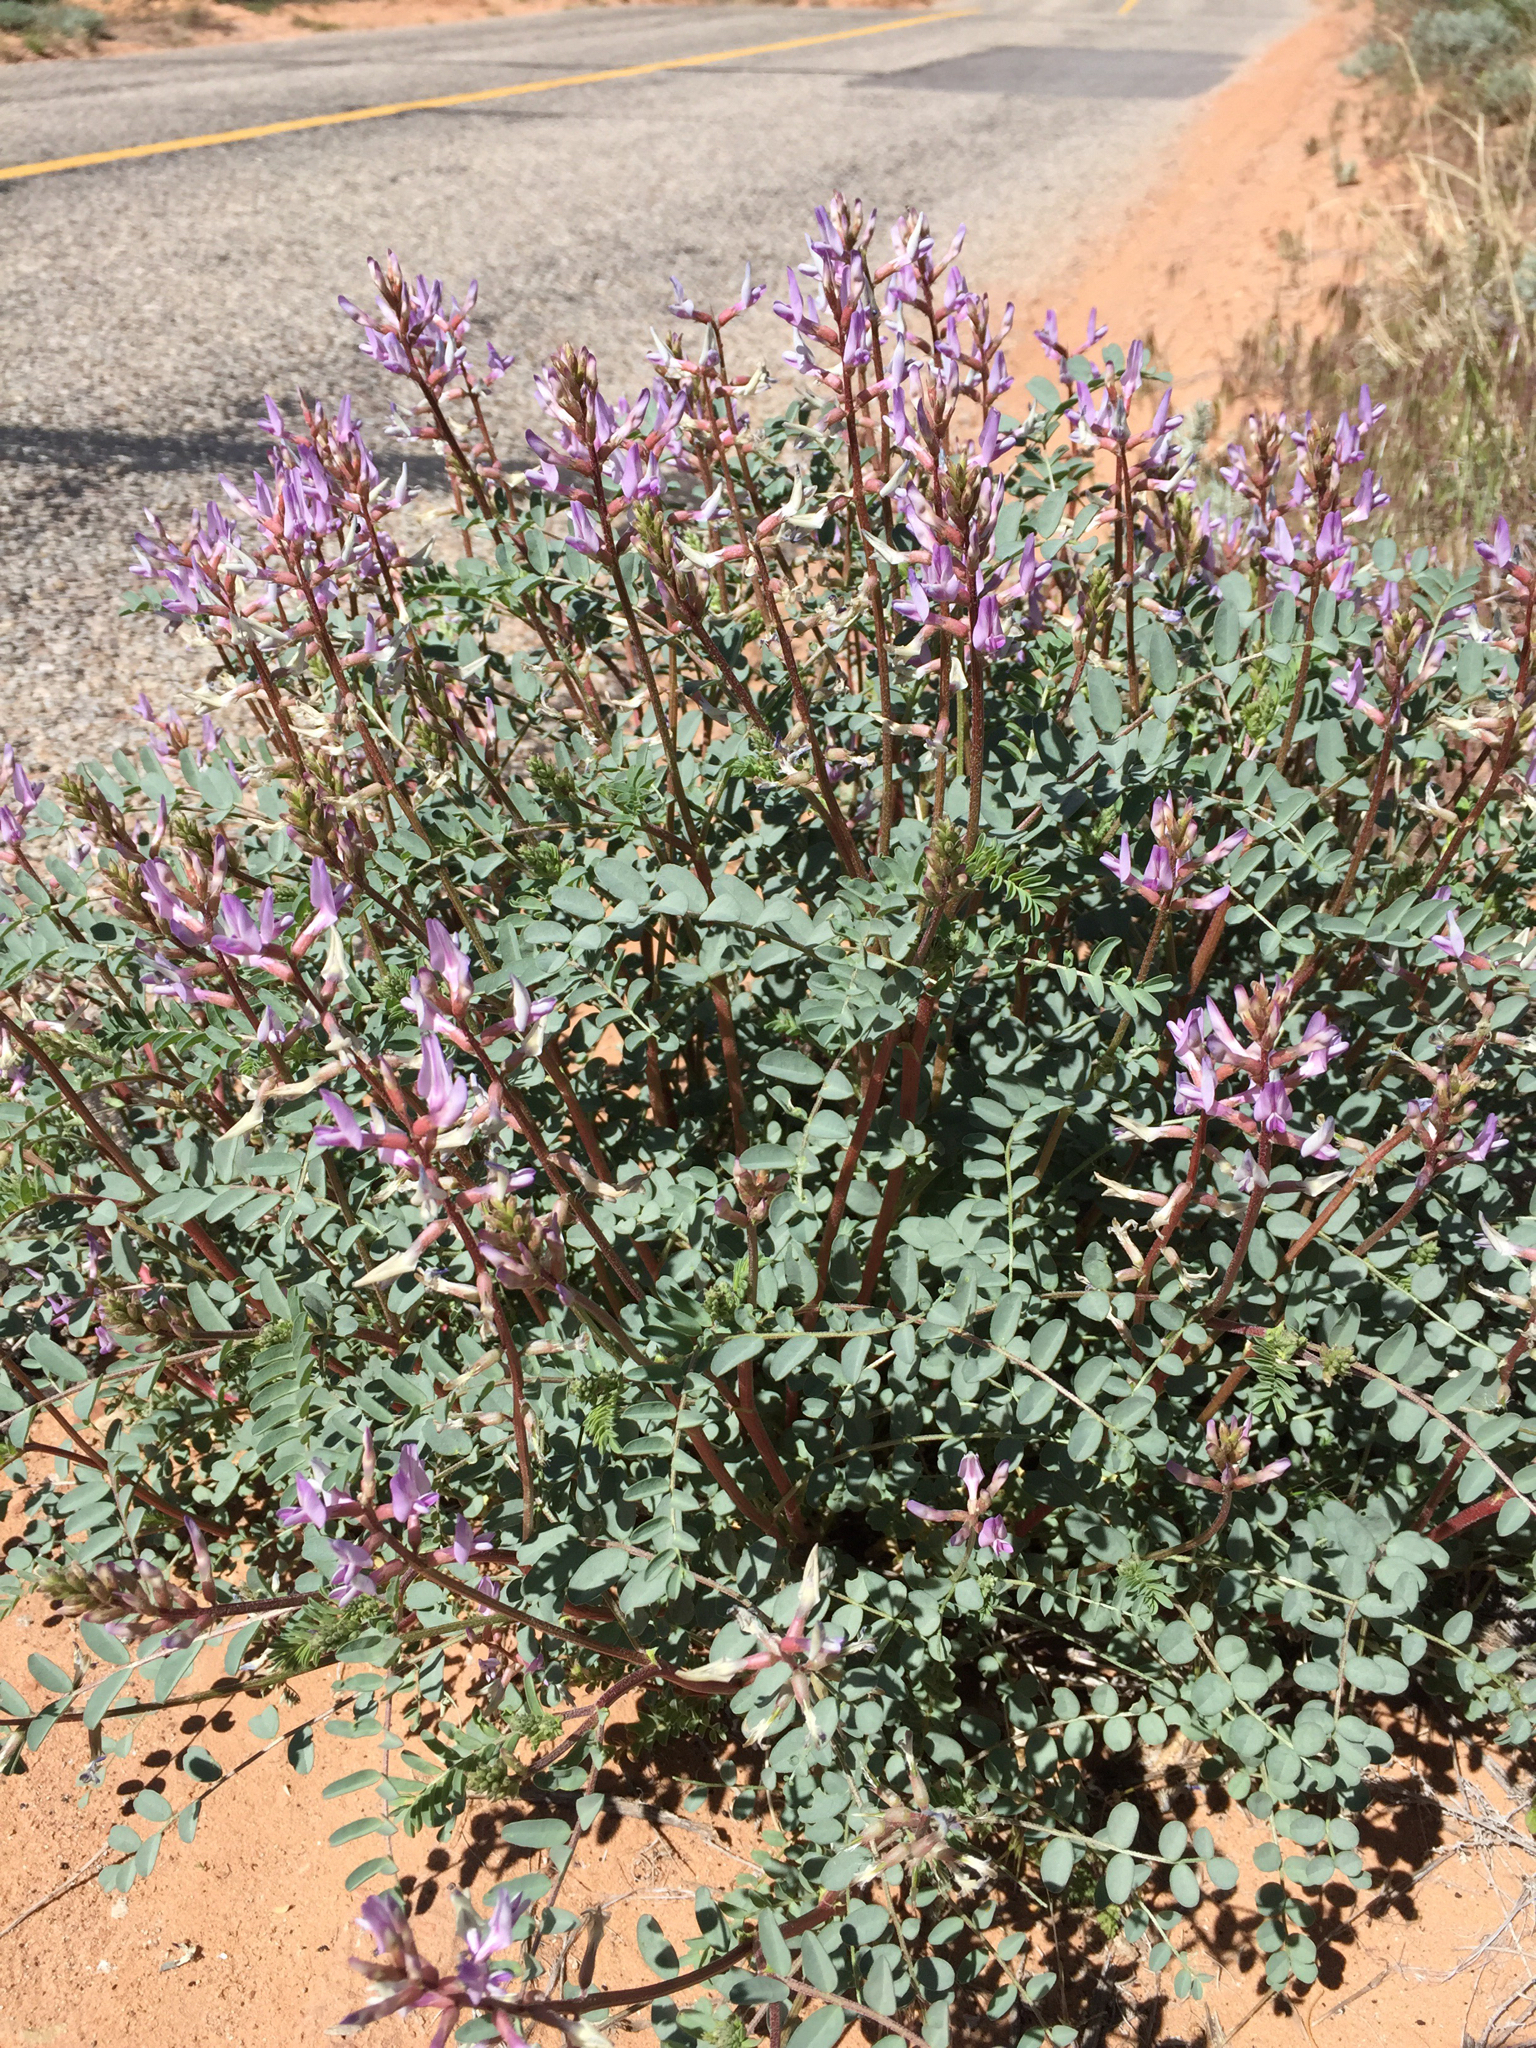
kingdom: Plantae
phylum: Tracheophyta
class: Magnoliopsida
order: Fabales
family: Fabaceae
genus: Astragalus
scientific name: Astragalus lentiginosus
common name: Freckled milkvetch
